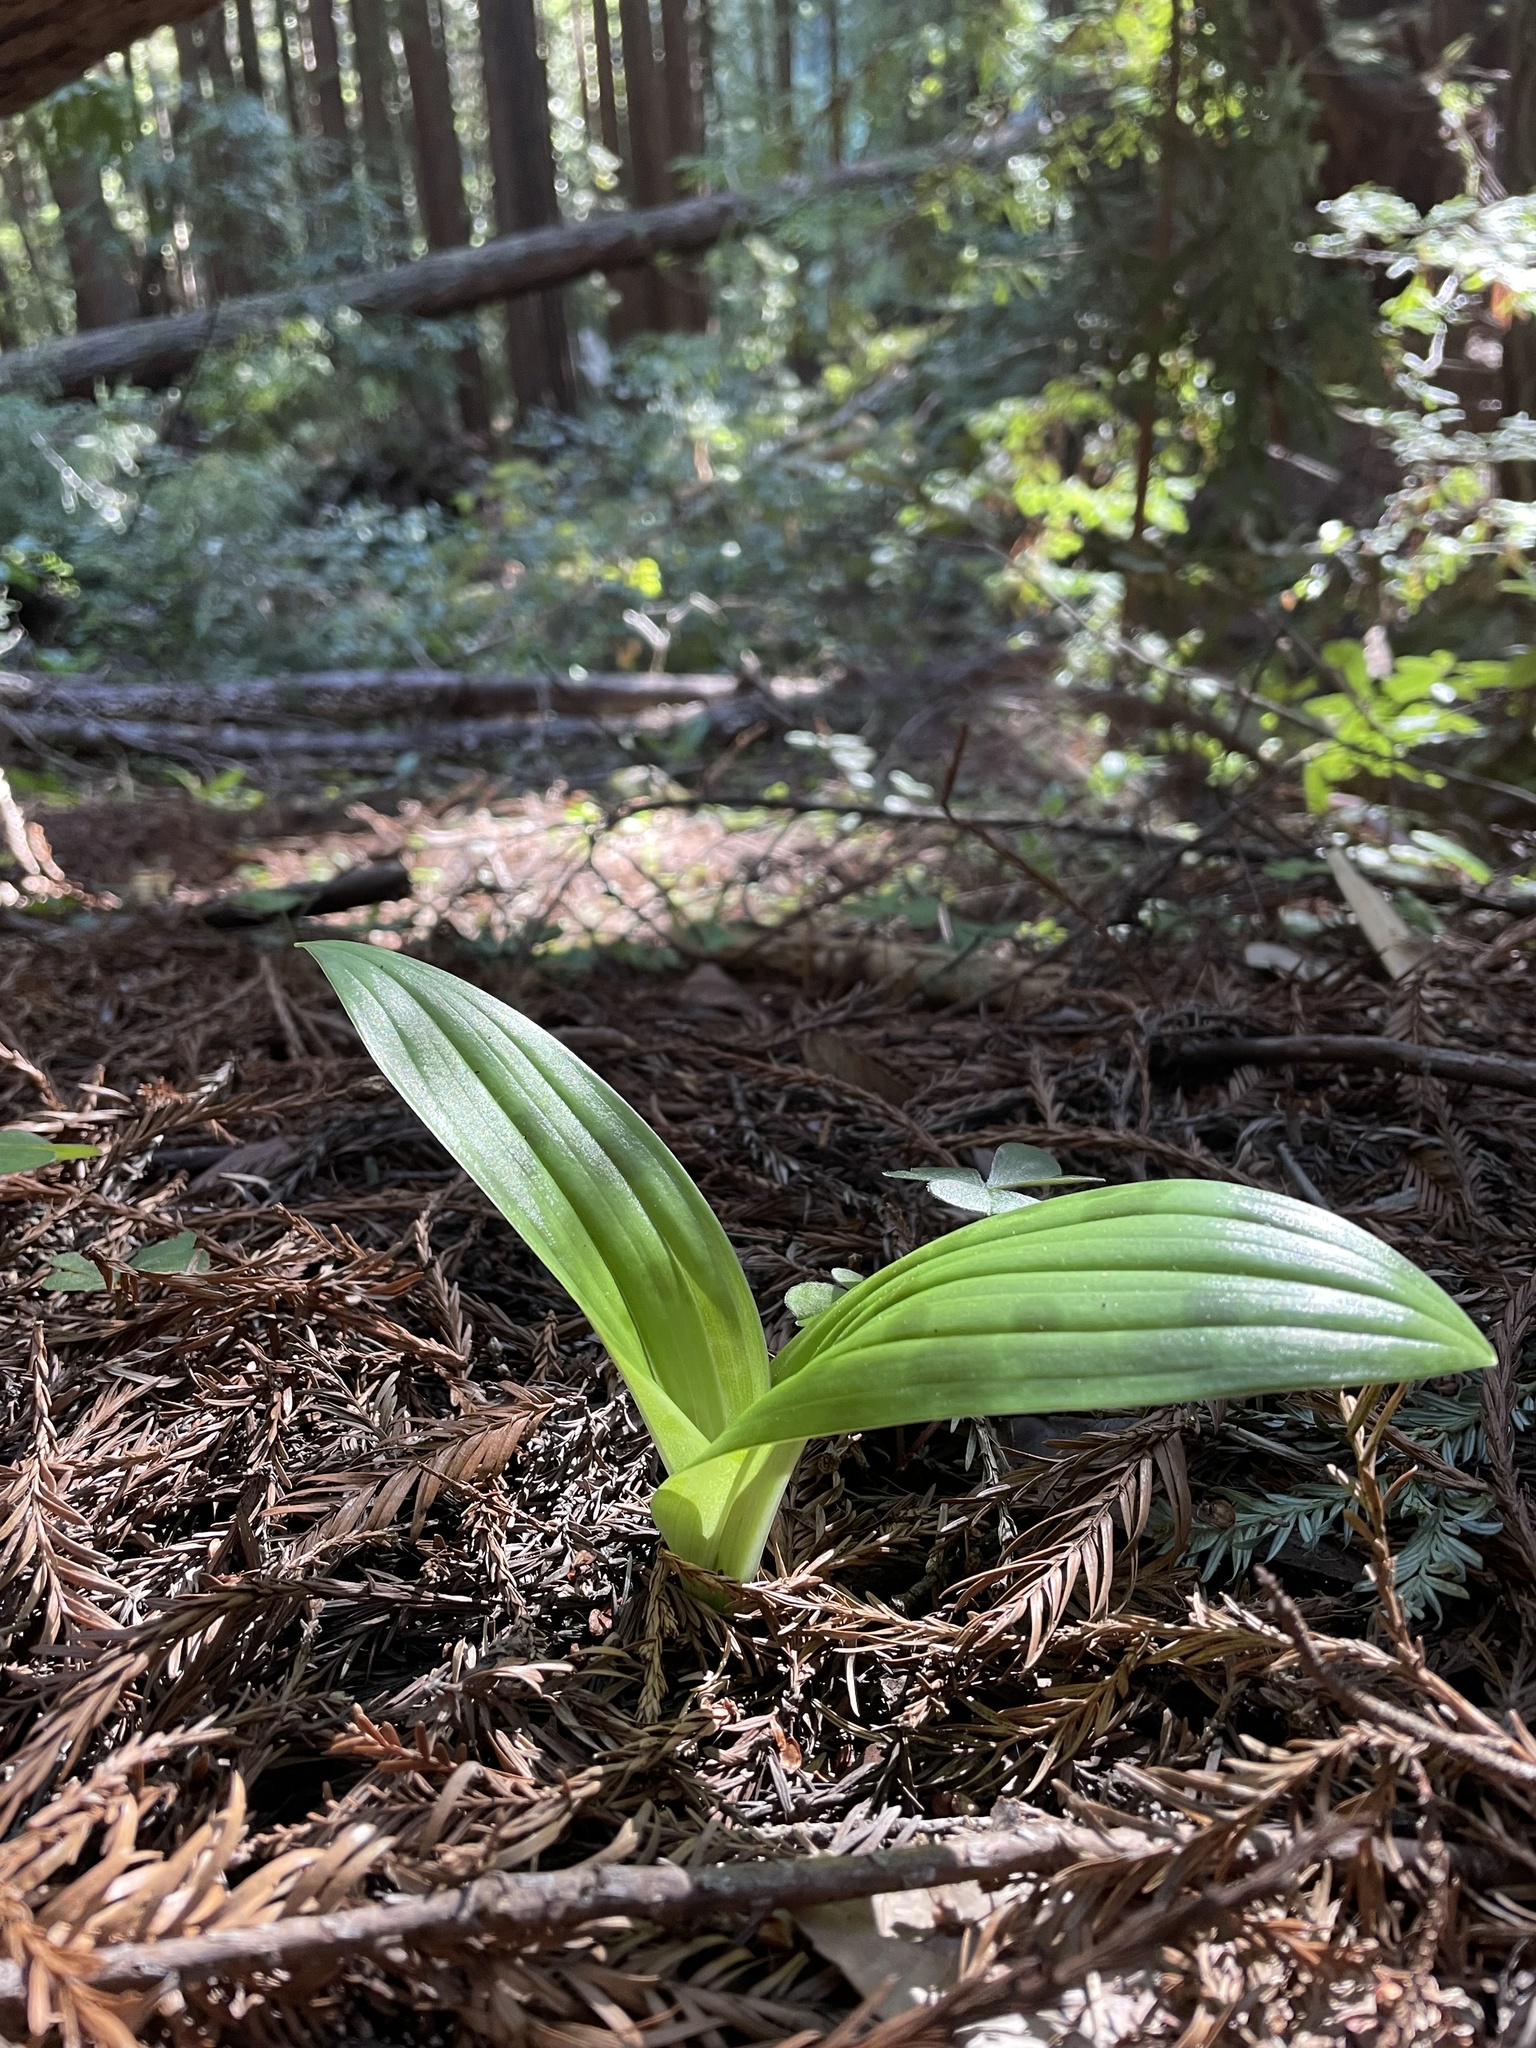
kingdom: Plantae
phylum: Tracheophyta
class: Liliopsida
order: Liliales
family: Liliaceae
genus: Scoliopus
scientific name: Scoliopus bigelovii
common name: Foetid adder's-tongue
